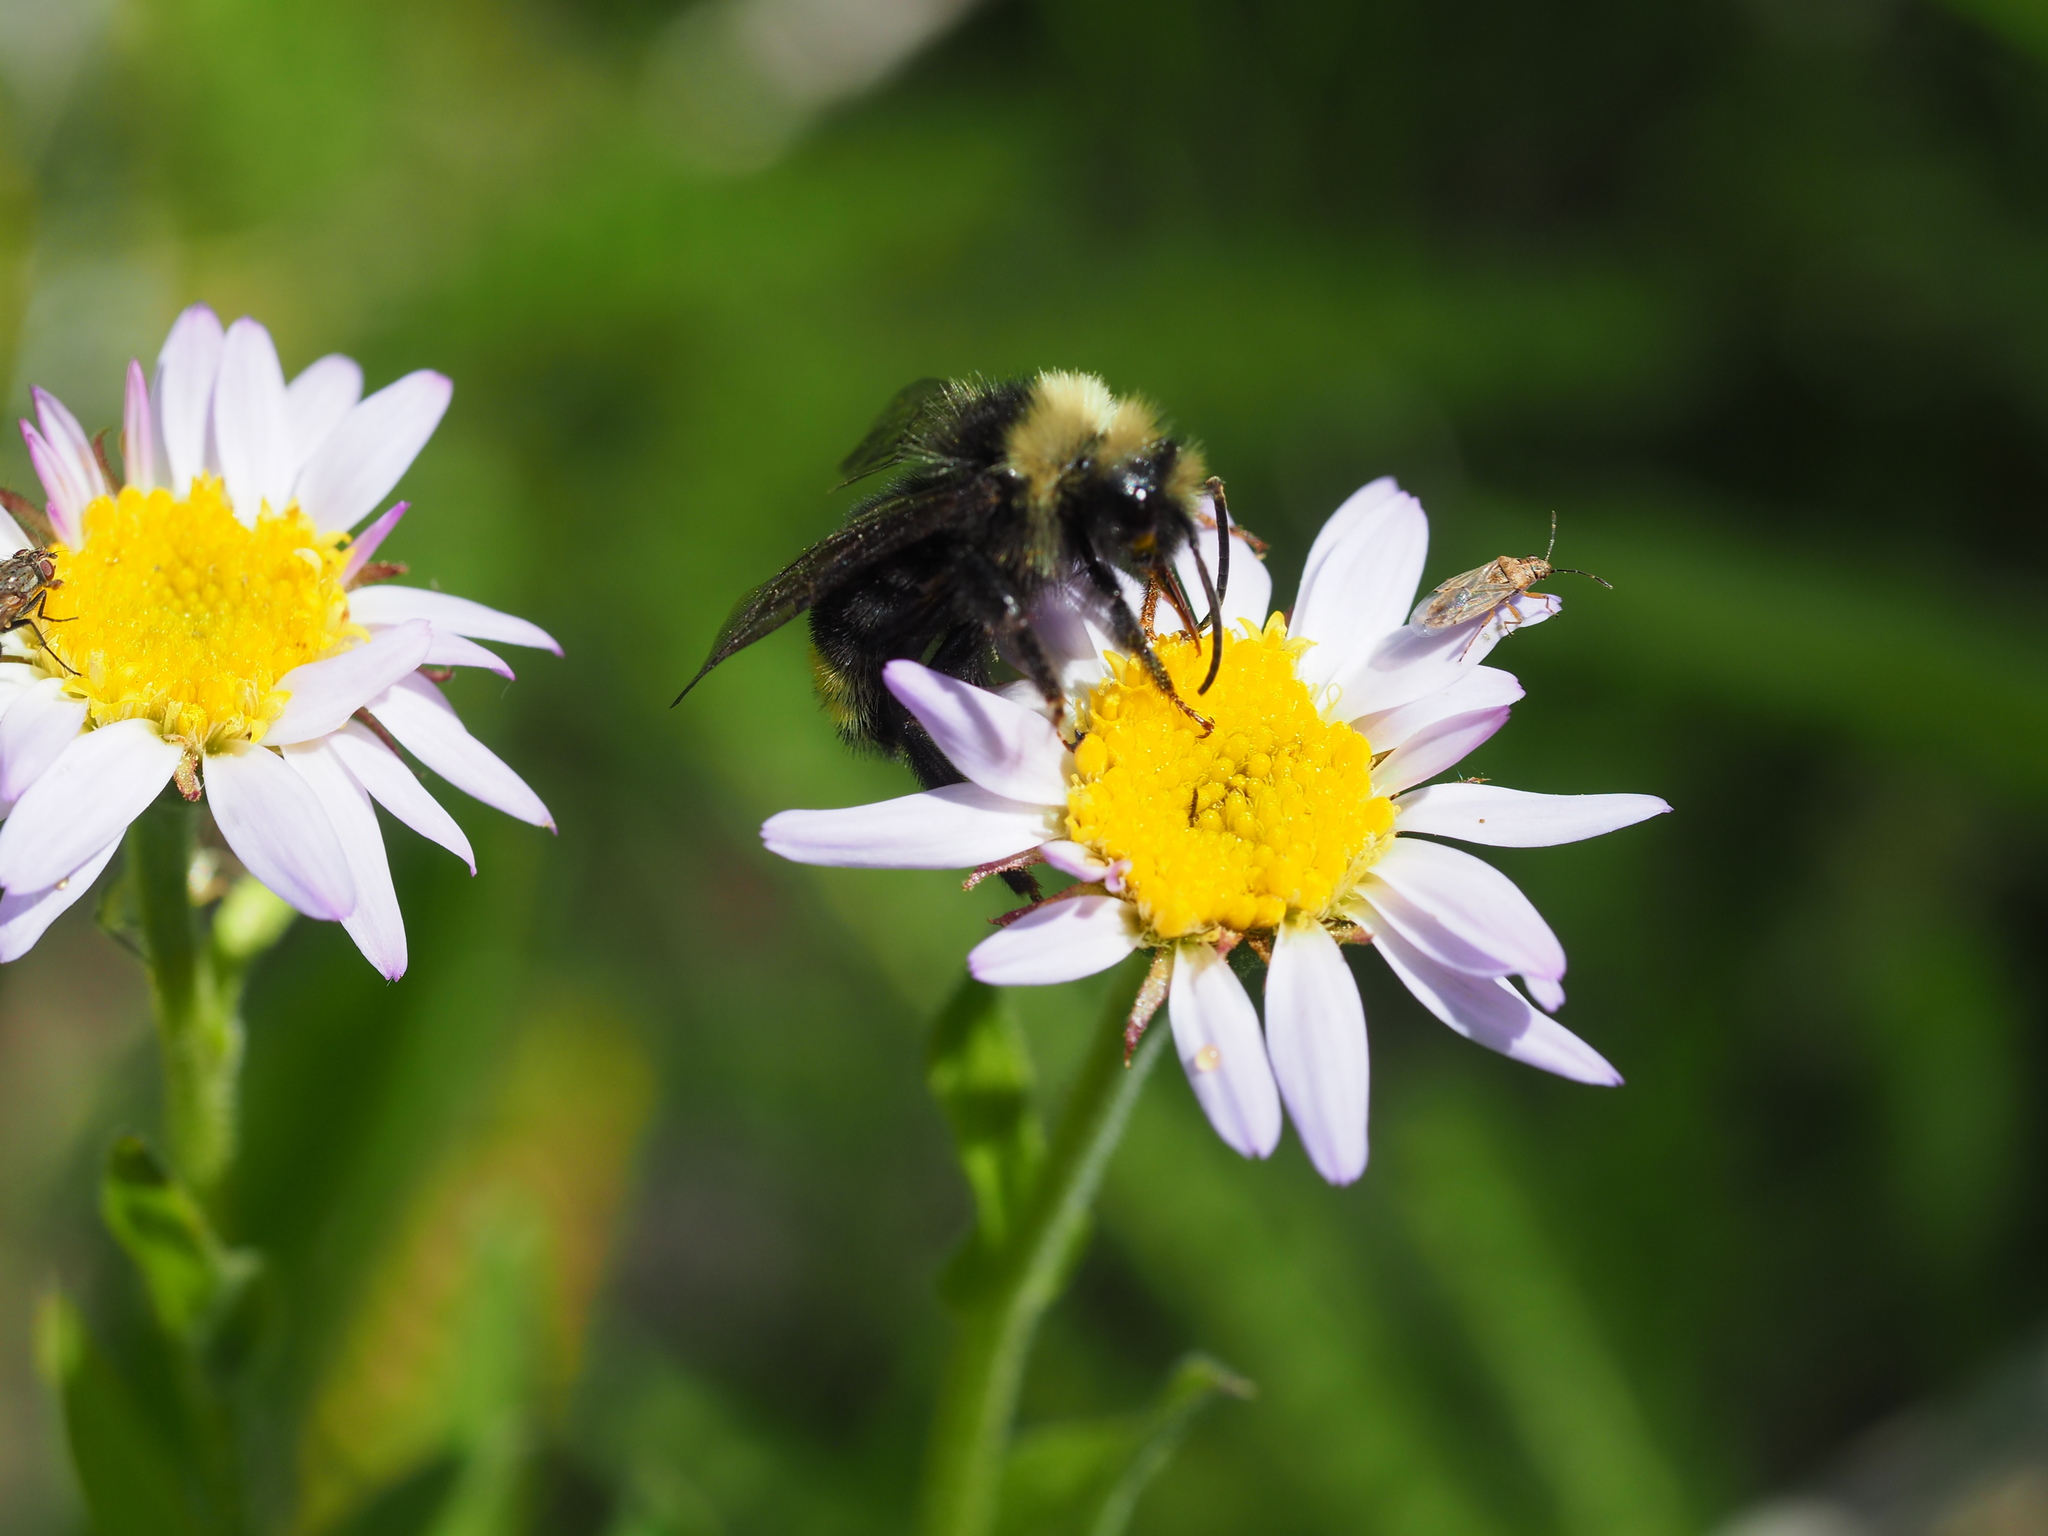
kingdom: Animalia
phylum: Arthropoda
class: Insecta
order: Hymenoptera
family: Apidae
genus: Bombus
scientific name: Bombus insularis
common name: Indiscriminate cuckoo bumble bee
